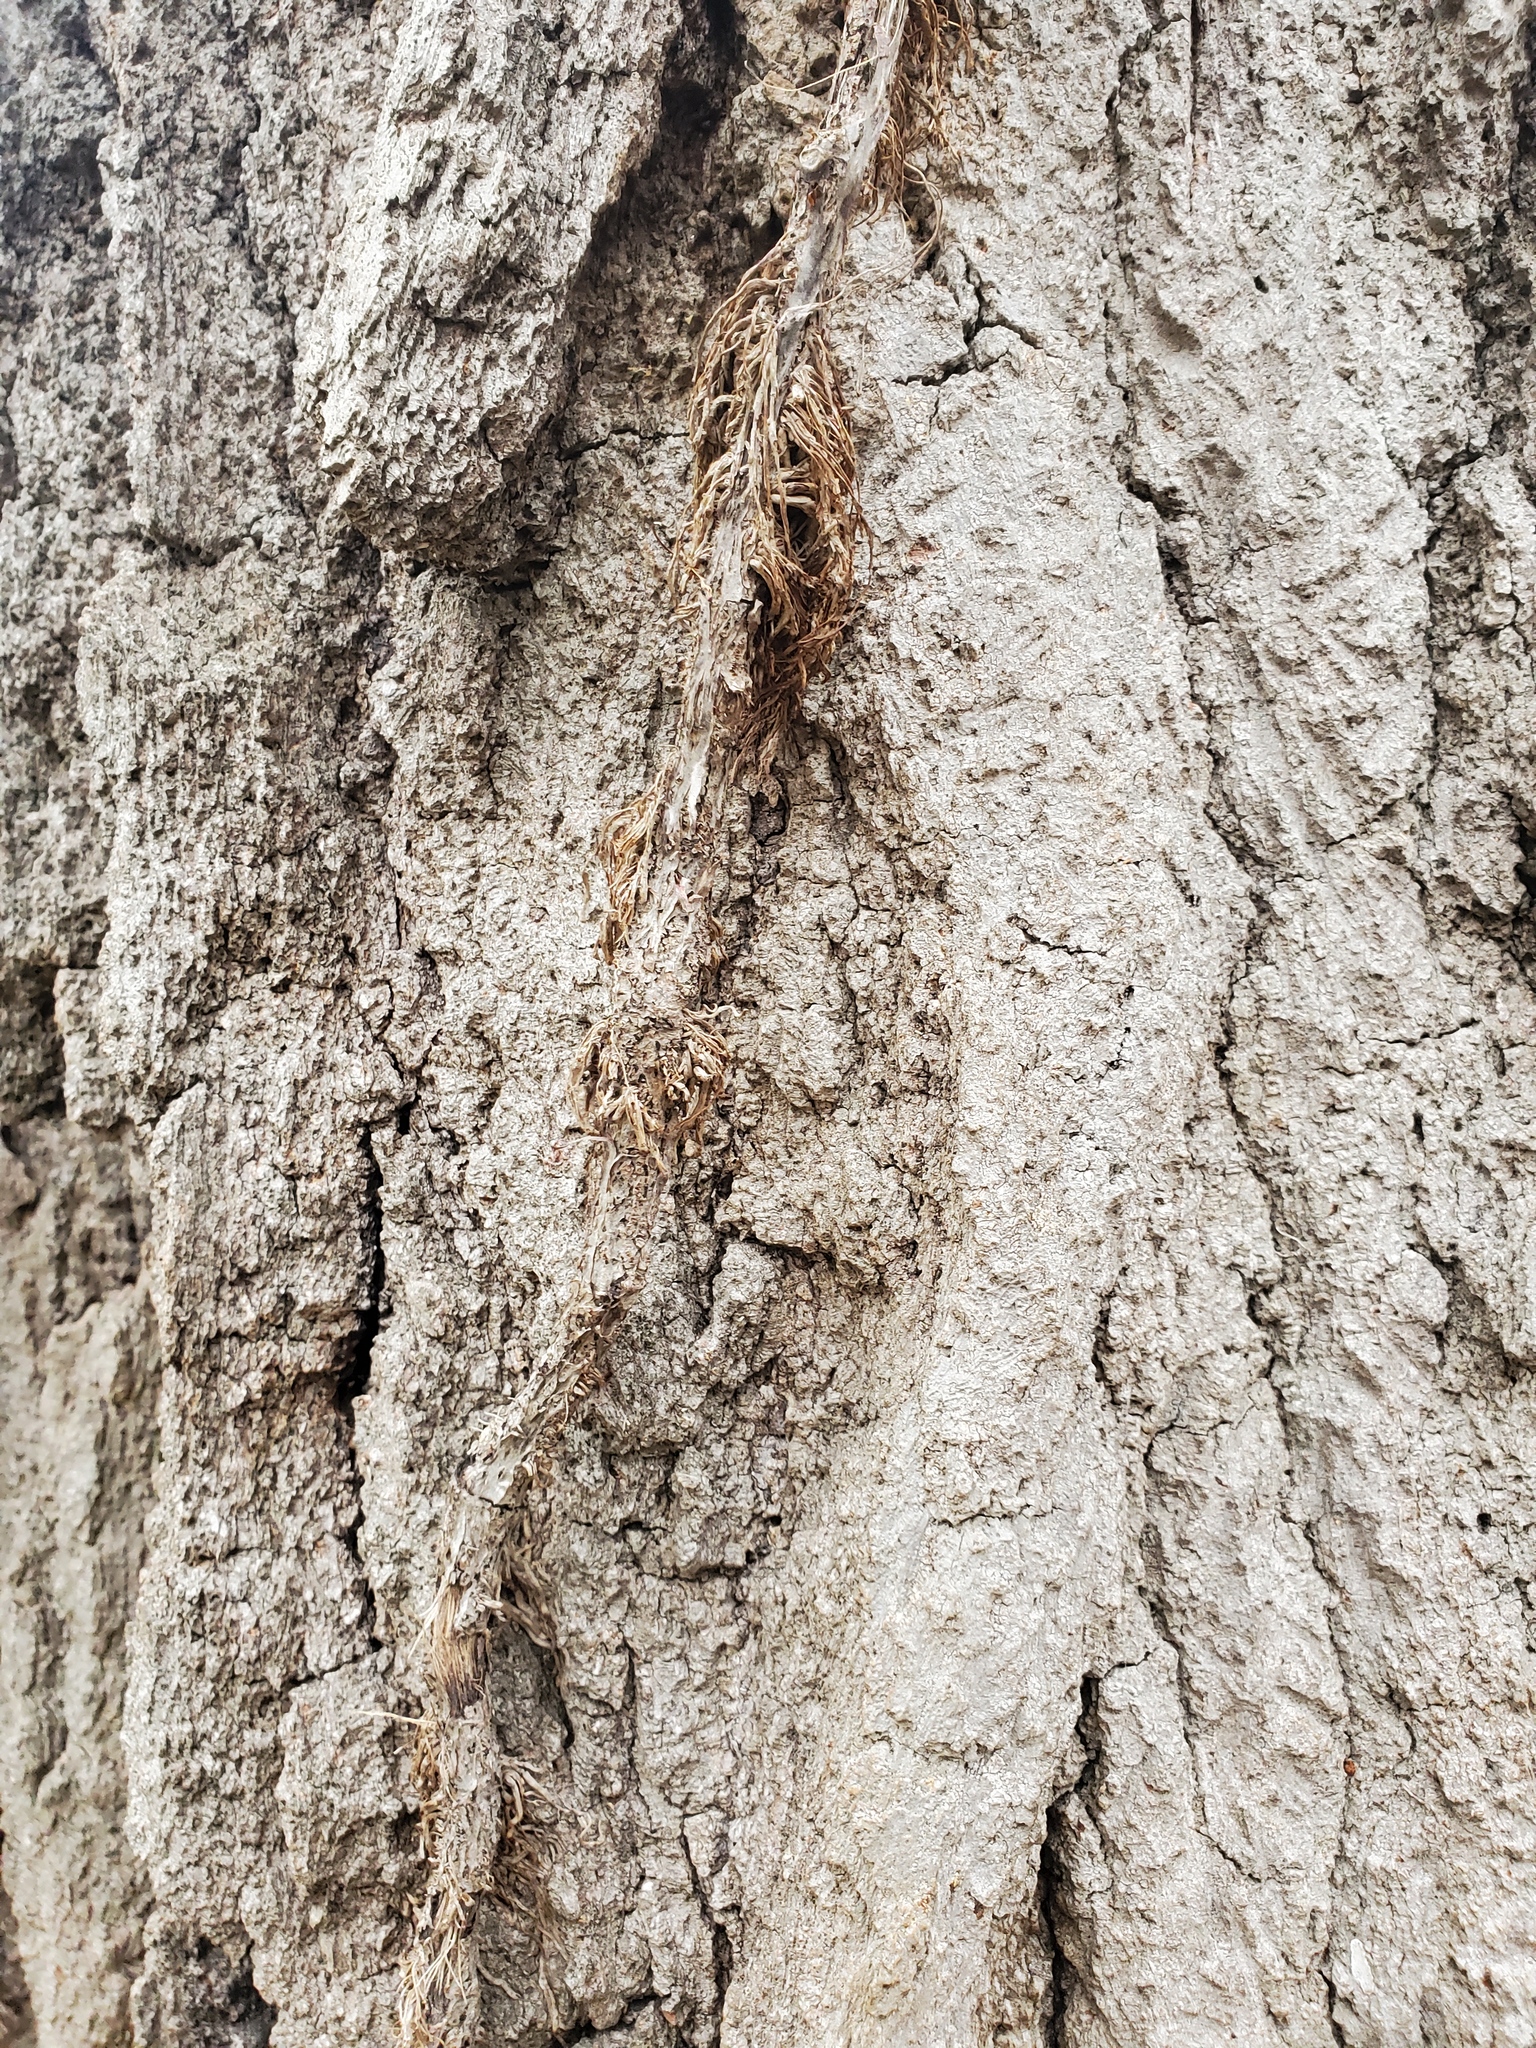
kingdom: Plantae
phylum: Tracheophyta
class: Magnoliopsida
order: Vitales
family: Vitaceae
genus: Parthenocissus
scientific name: Parthenocissus quinquefolia
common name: Virginia-creeper
